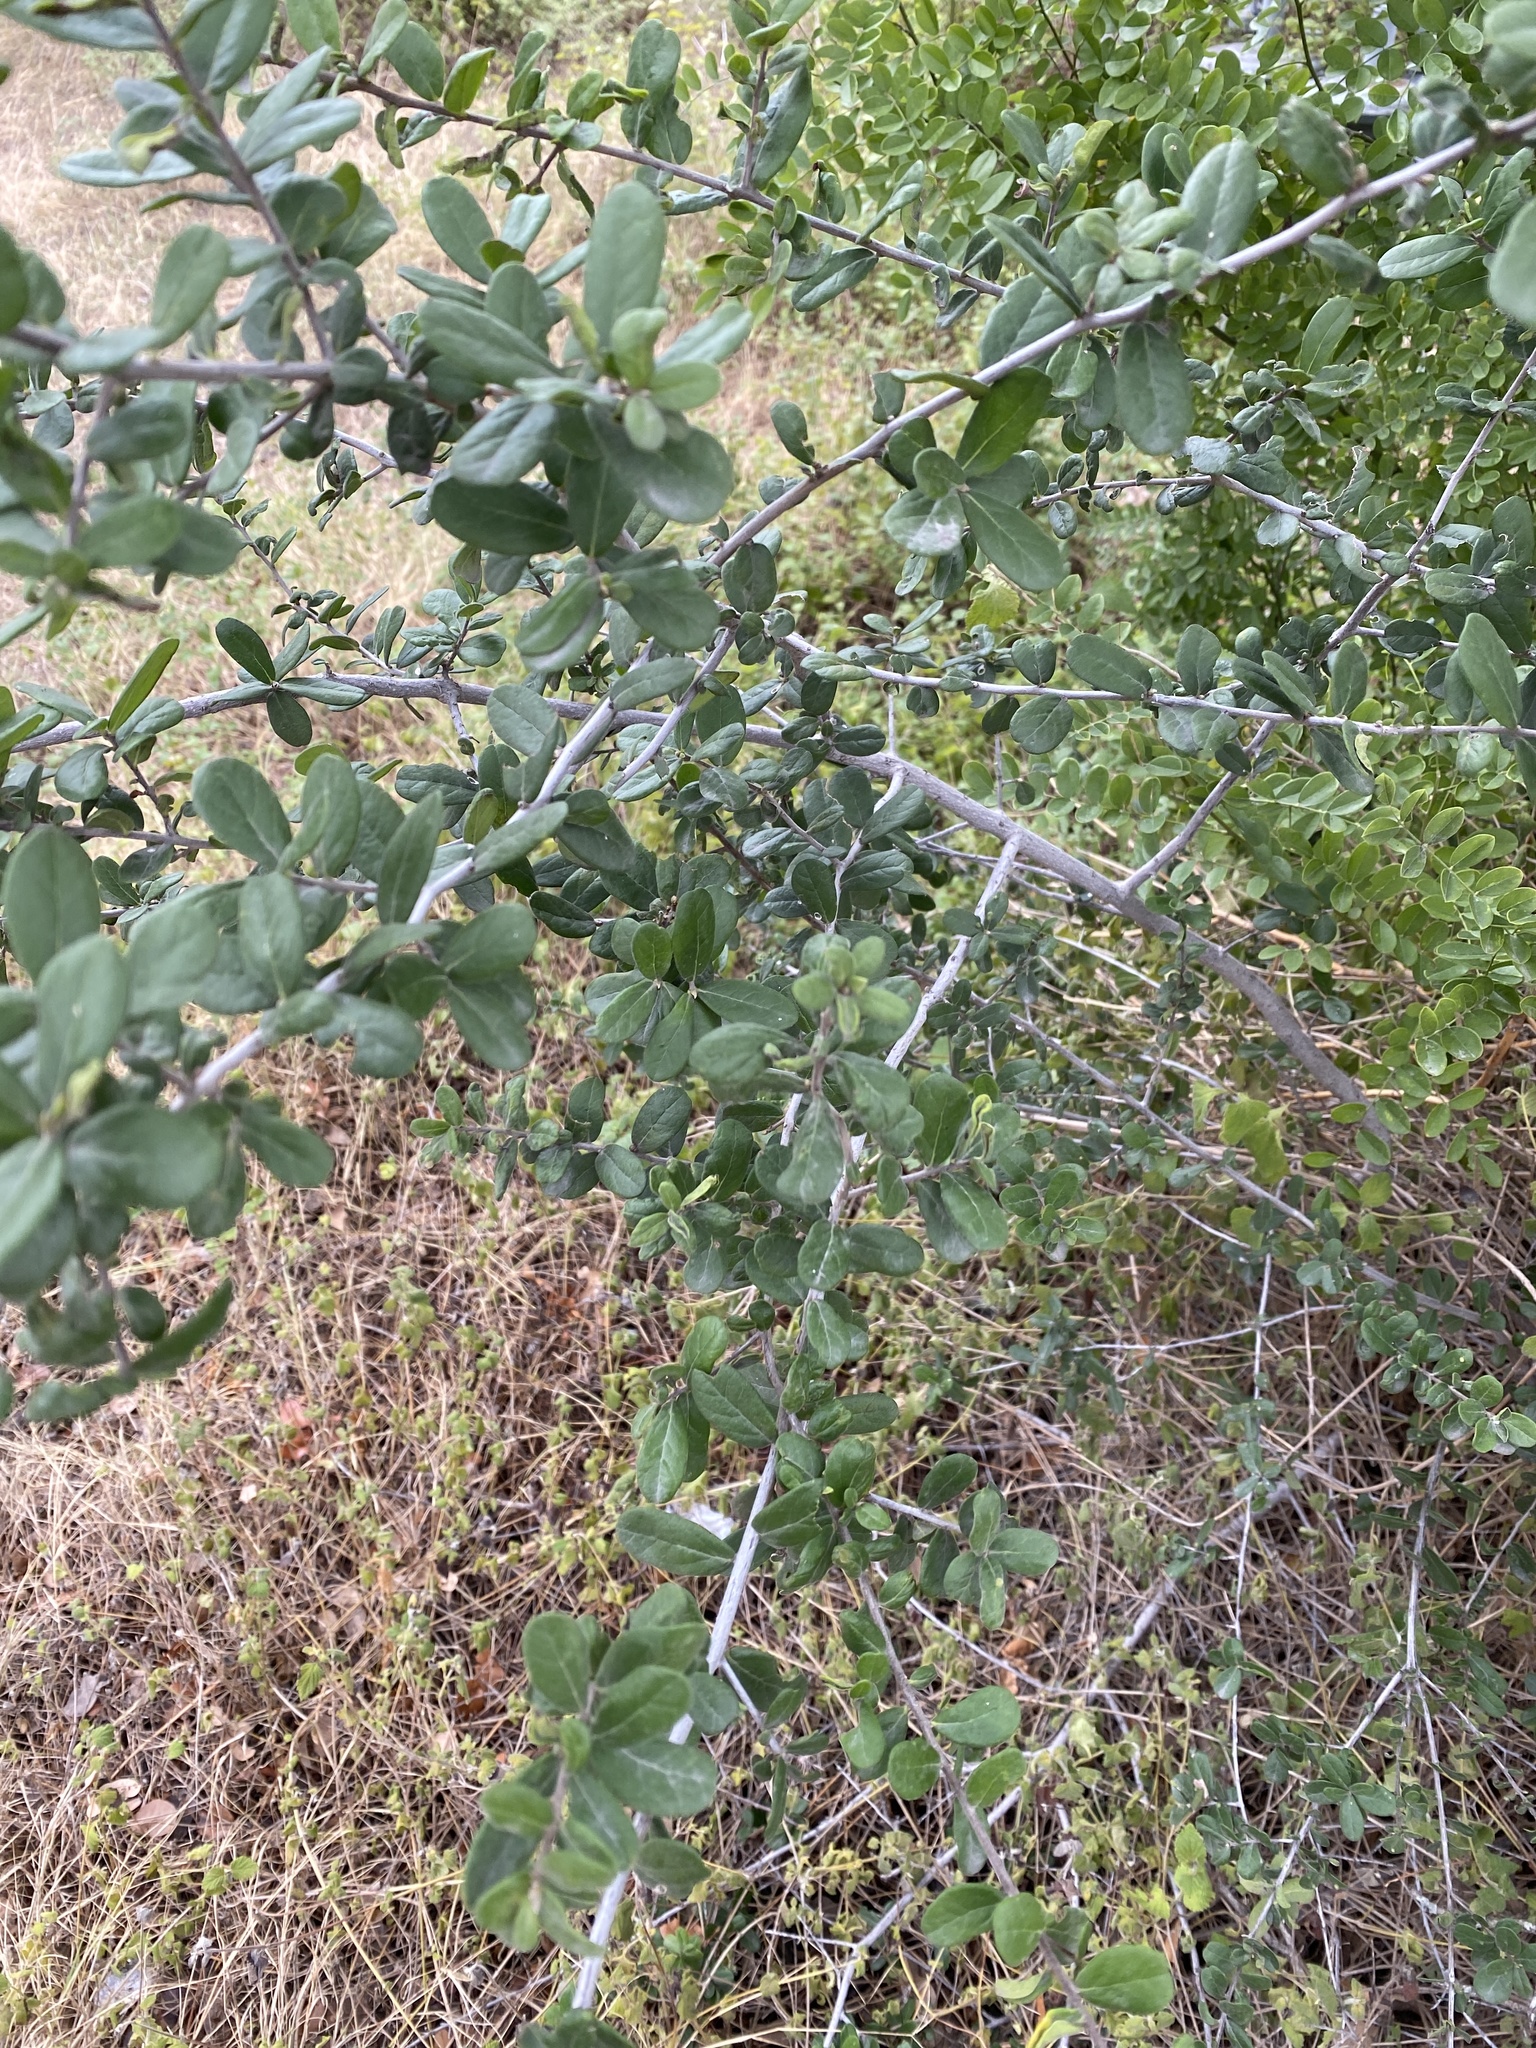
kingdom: Plantae
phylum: Tracheophyta
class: Magnoliopsida
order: Ericales
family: Ebenaceae
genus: Diospyros
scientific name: Diospyros texana
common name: Texas persimmon
